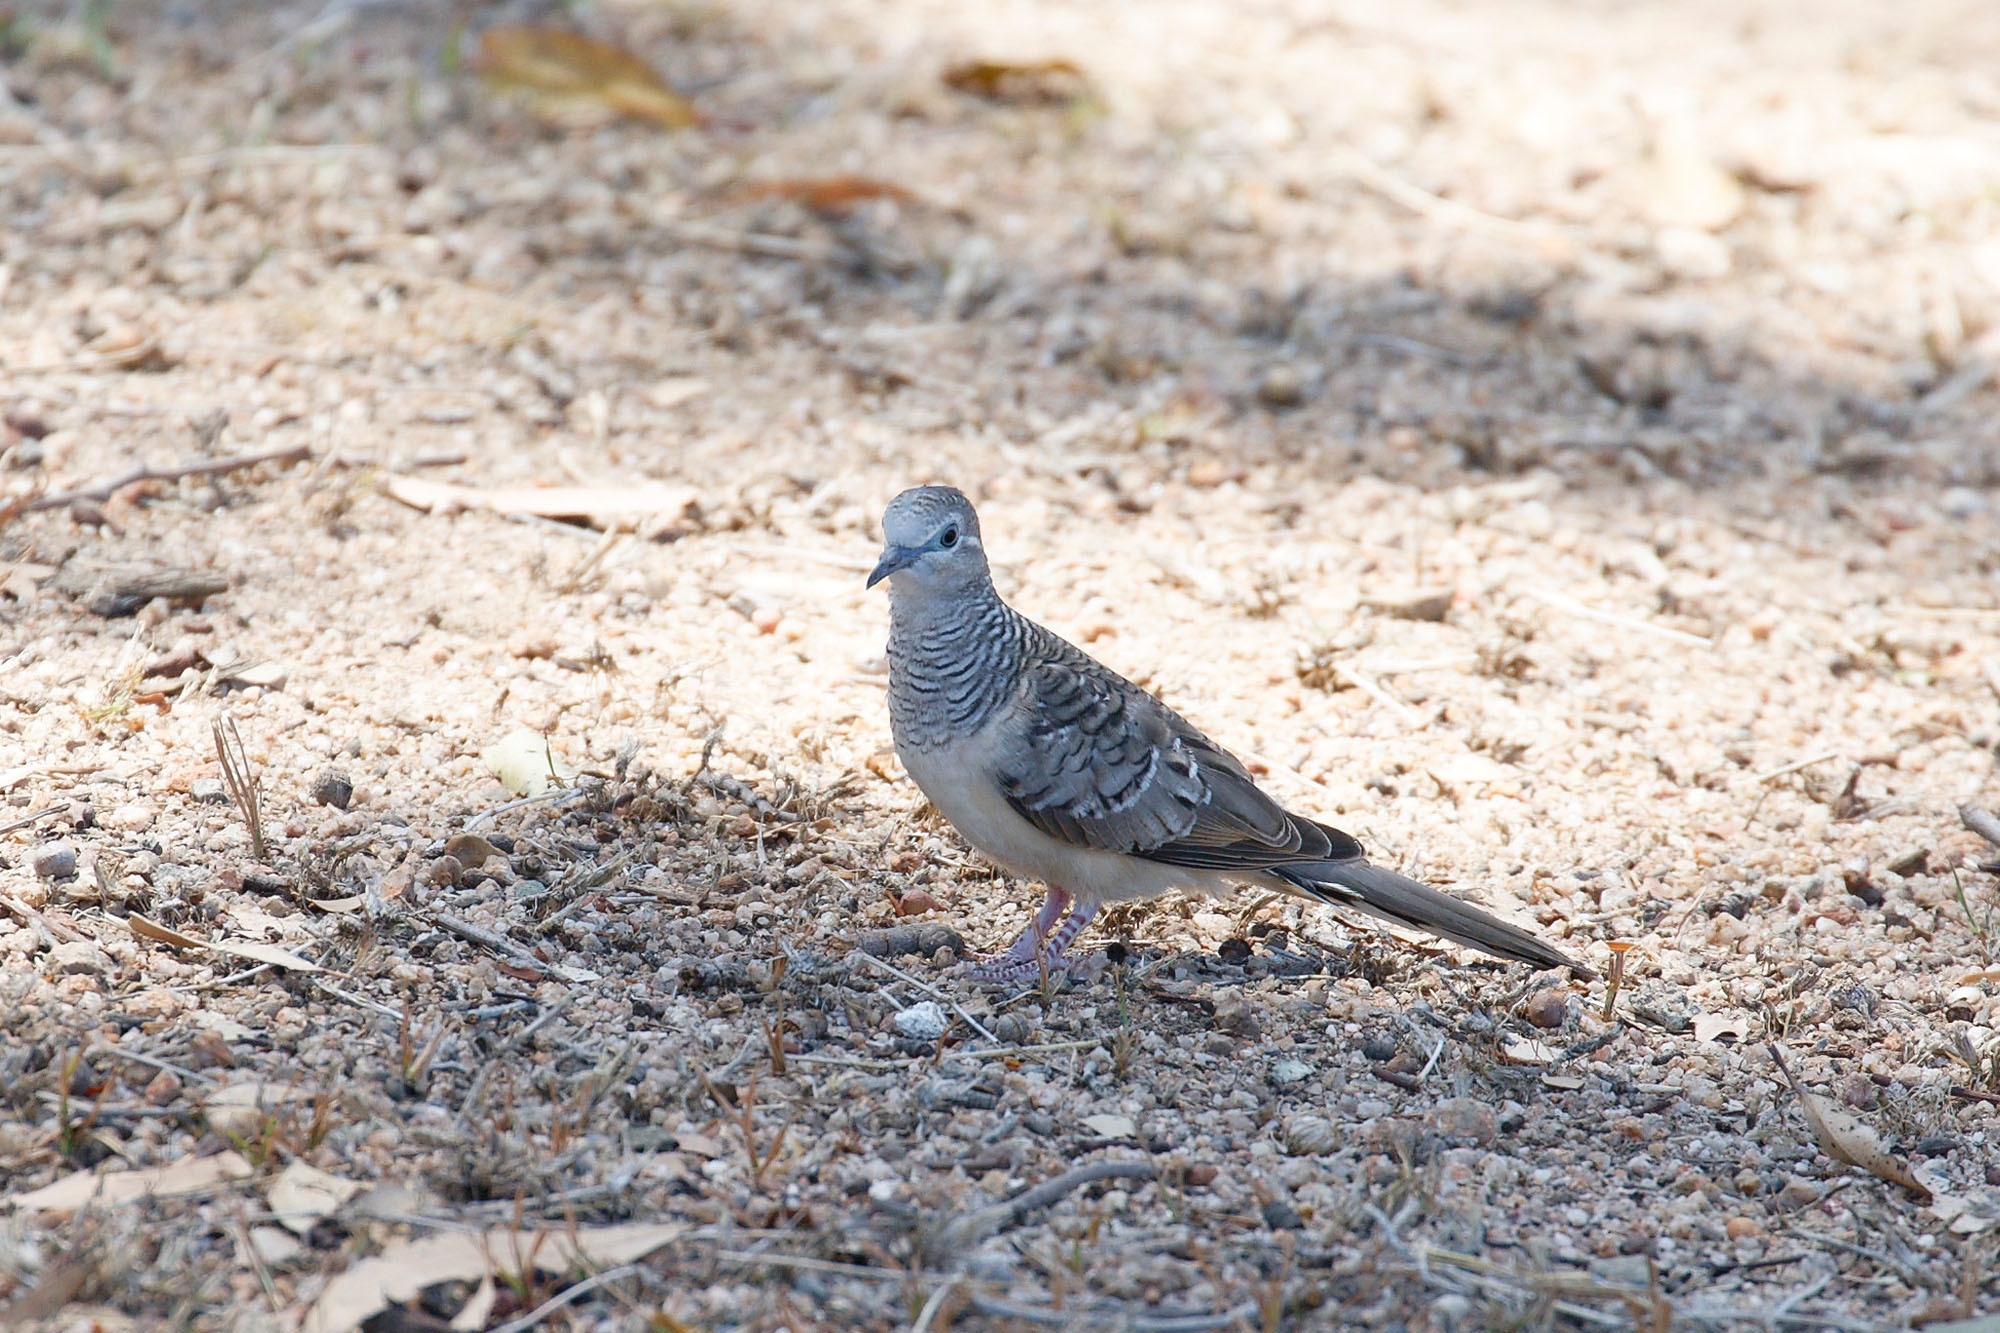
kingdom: Animalia
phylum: Chordata
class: Aves
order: Columbiformes
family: Columbidae
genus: Geopelia
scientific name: Geopelia placida
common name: Peaceful dove
